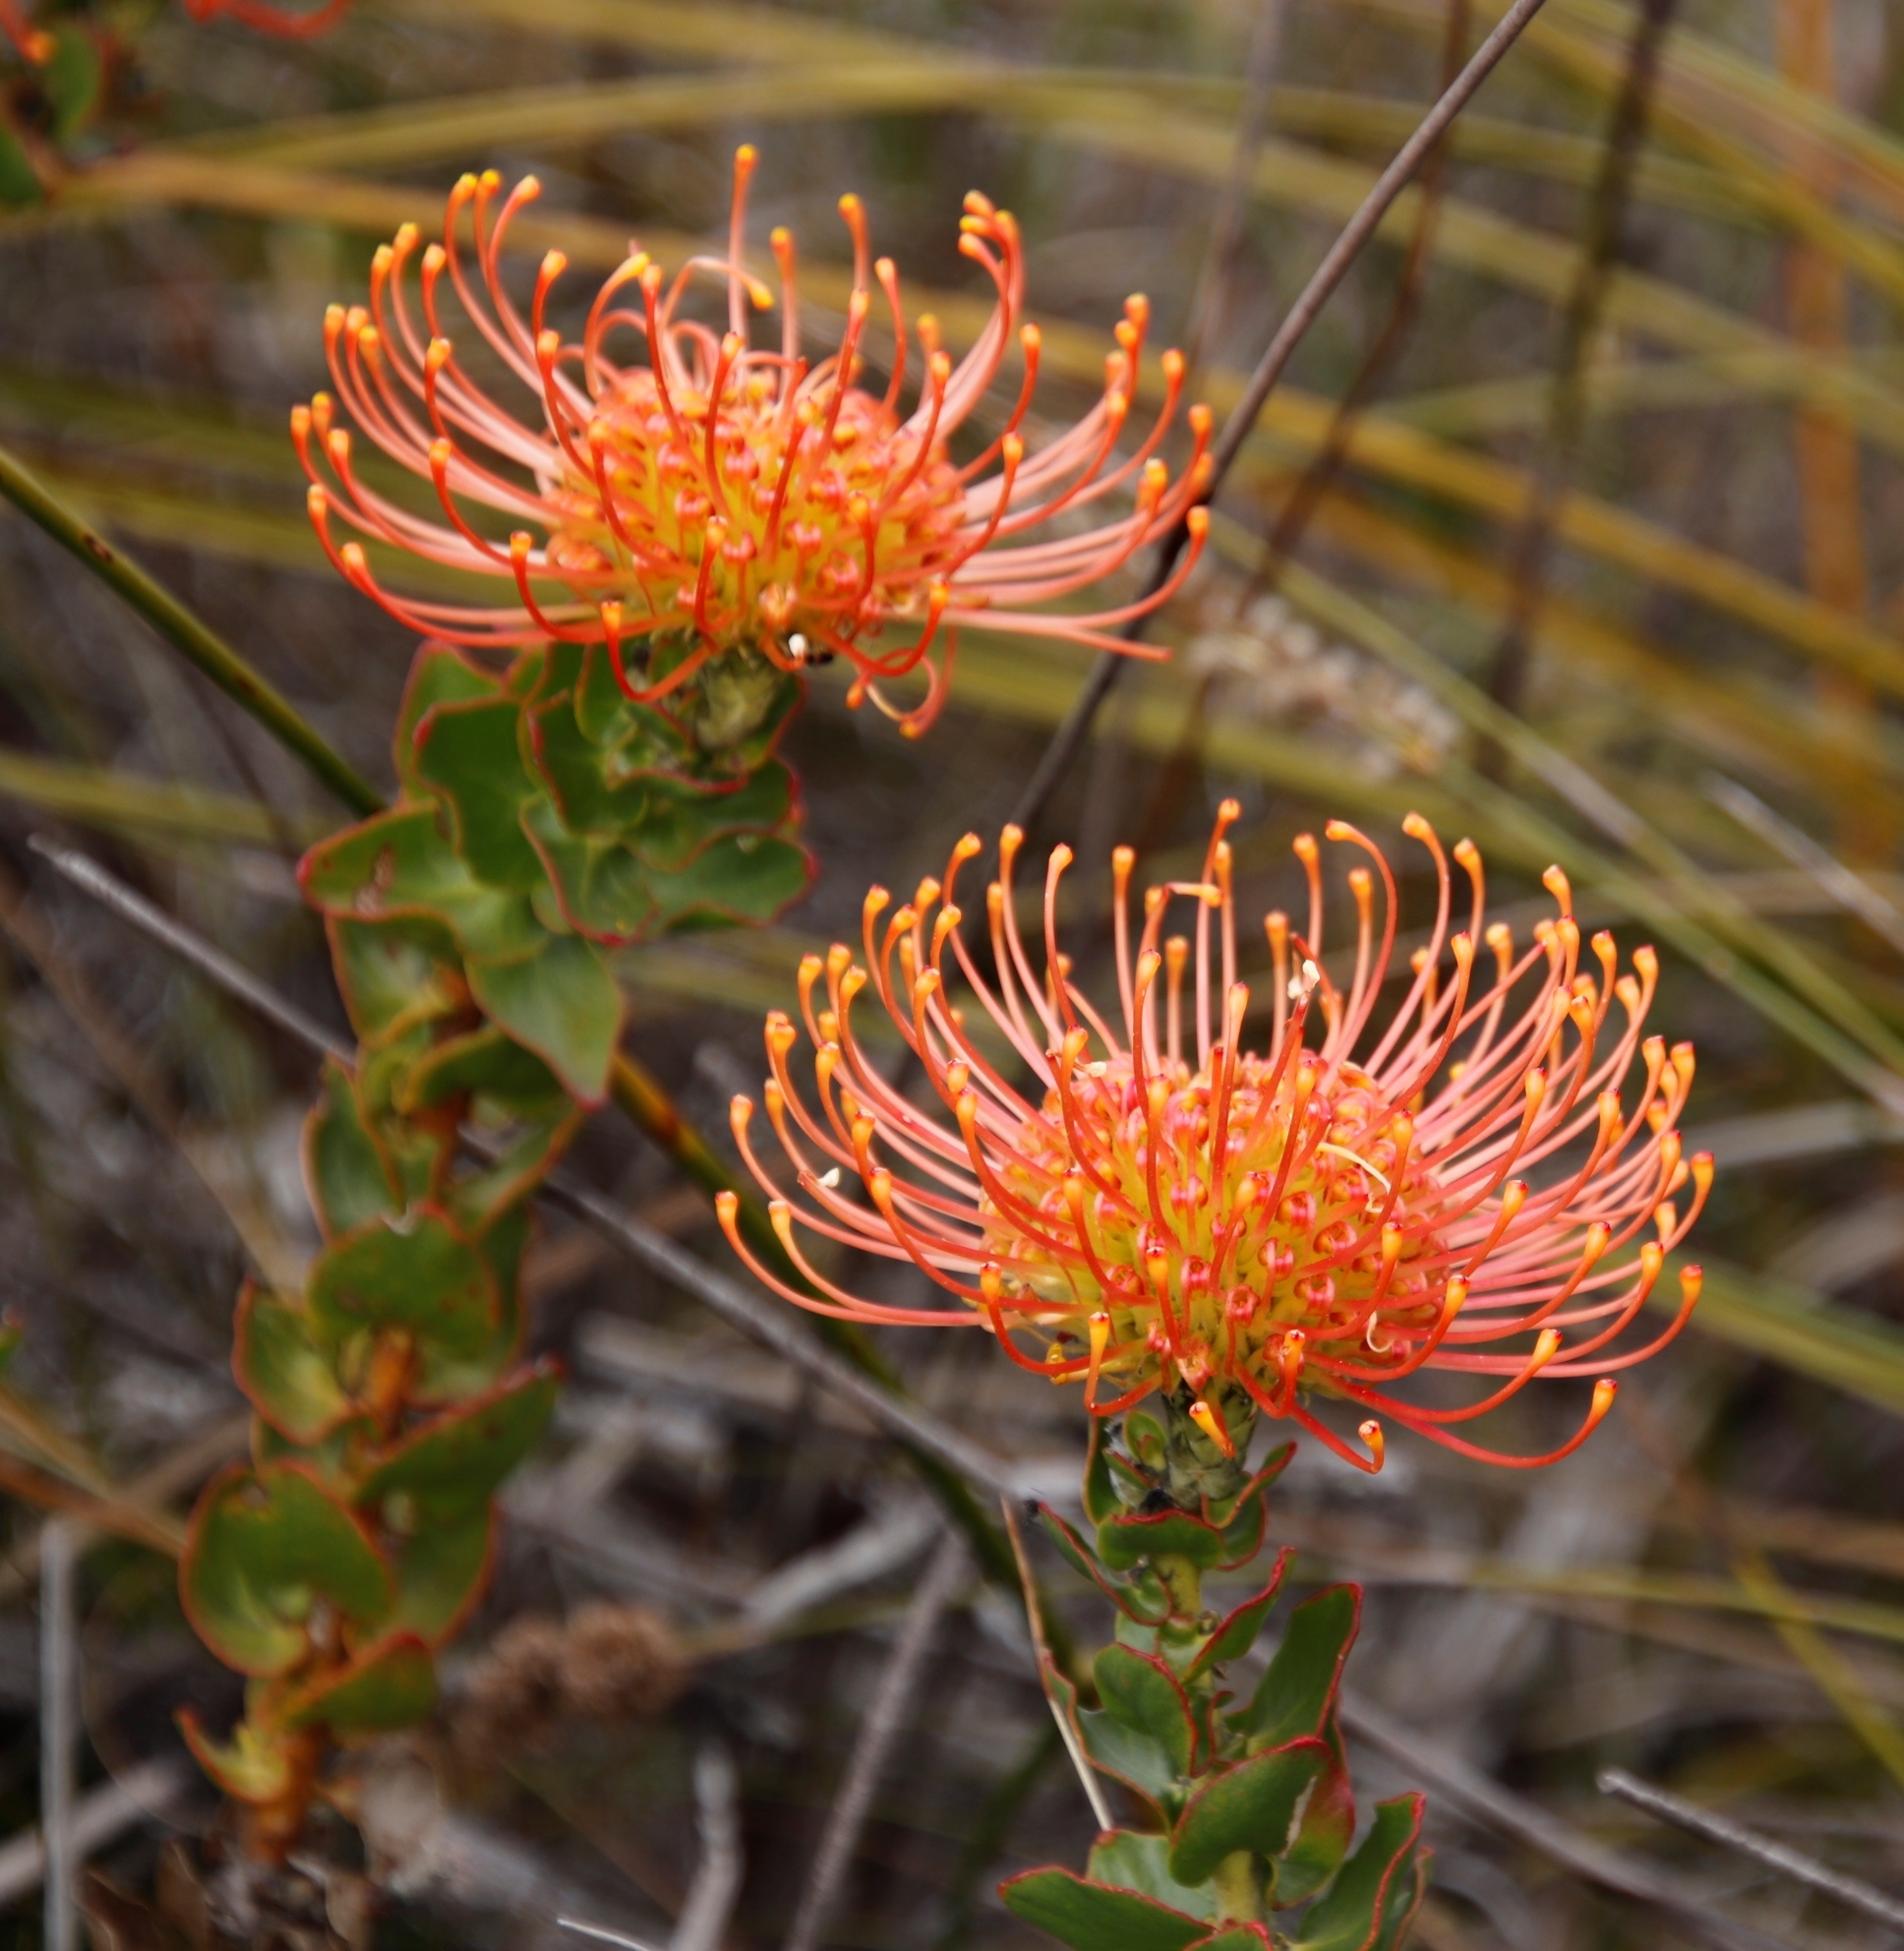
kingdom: Plantae
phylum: Tracheophyta
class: Magnoliopsida
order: Proteales
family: Proteaceae
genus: Leucospermum
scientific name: Leucospermum cordifolium
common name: Red pincushion-protea
